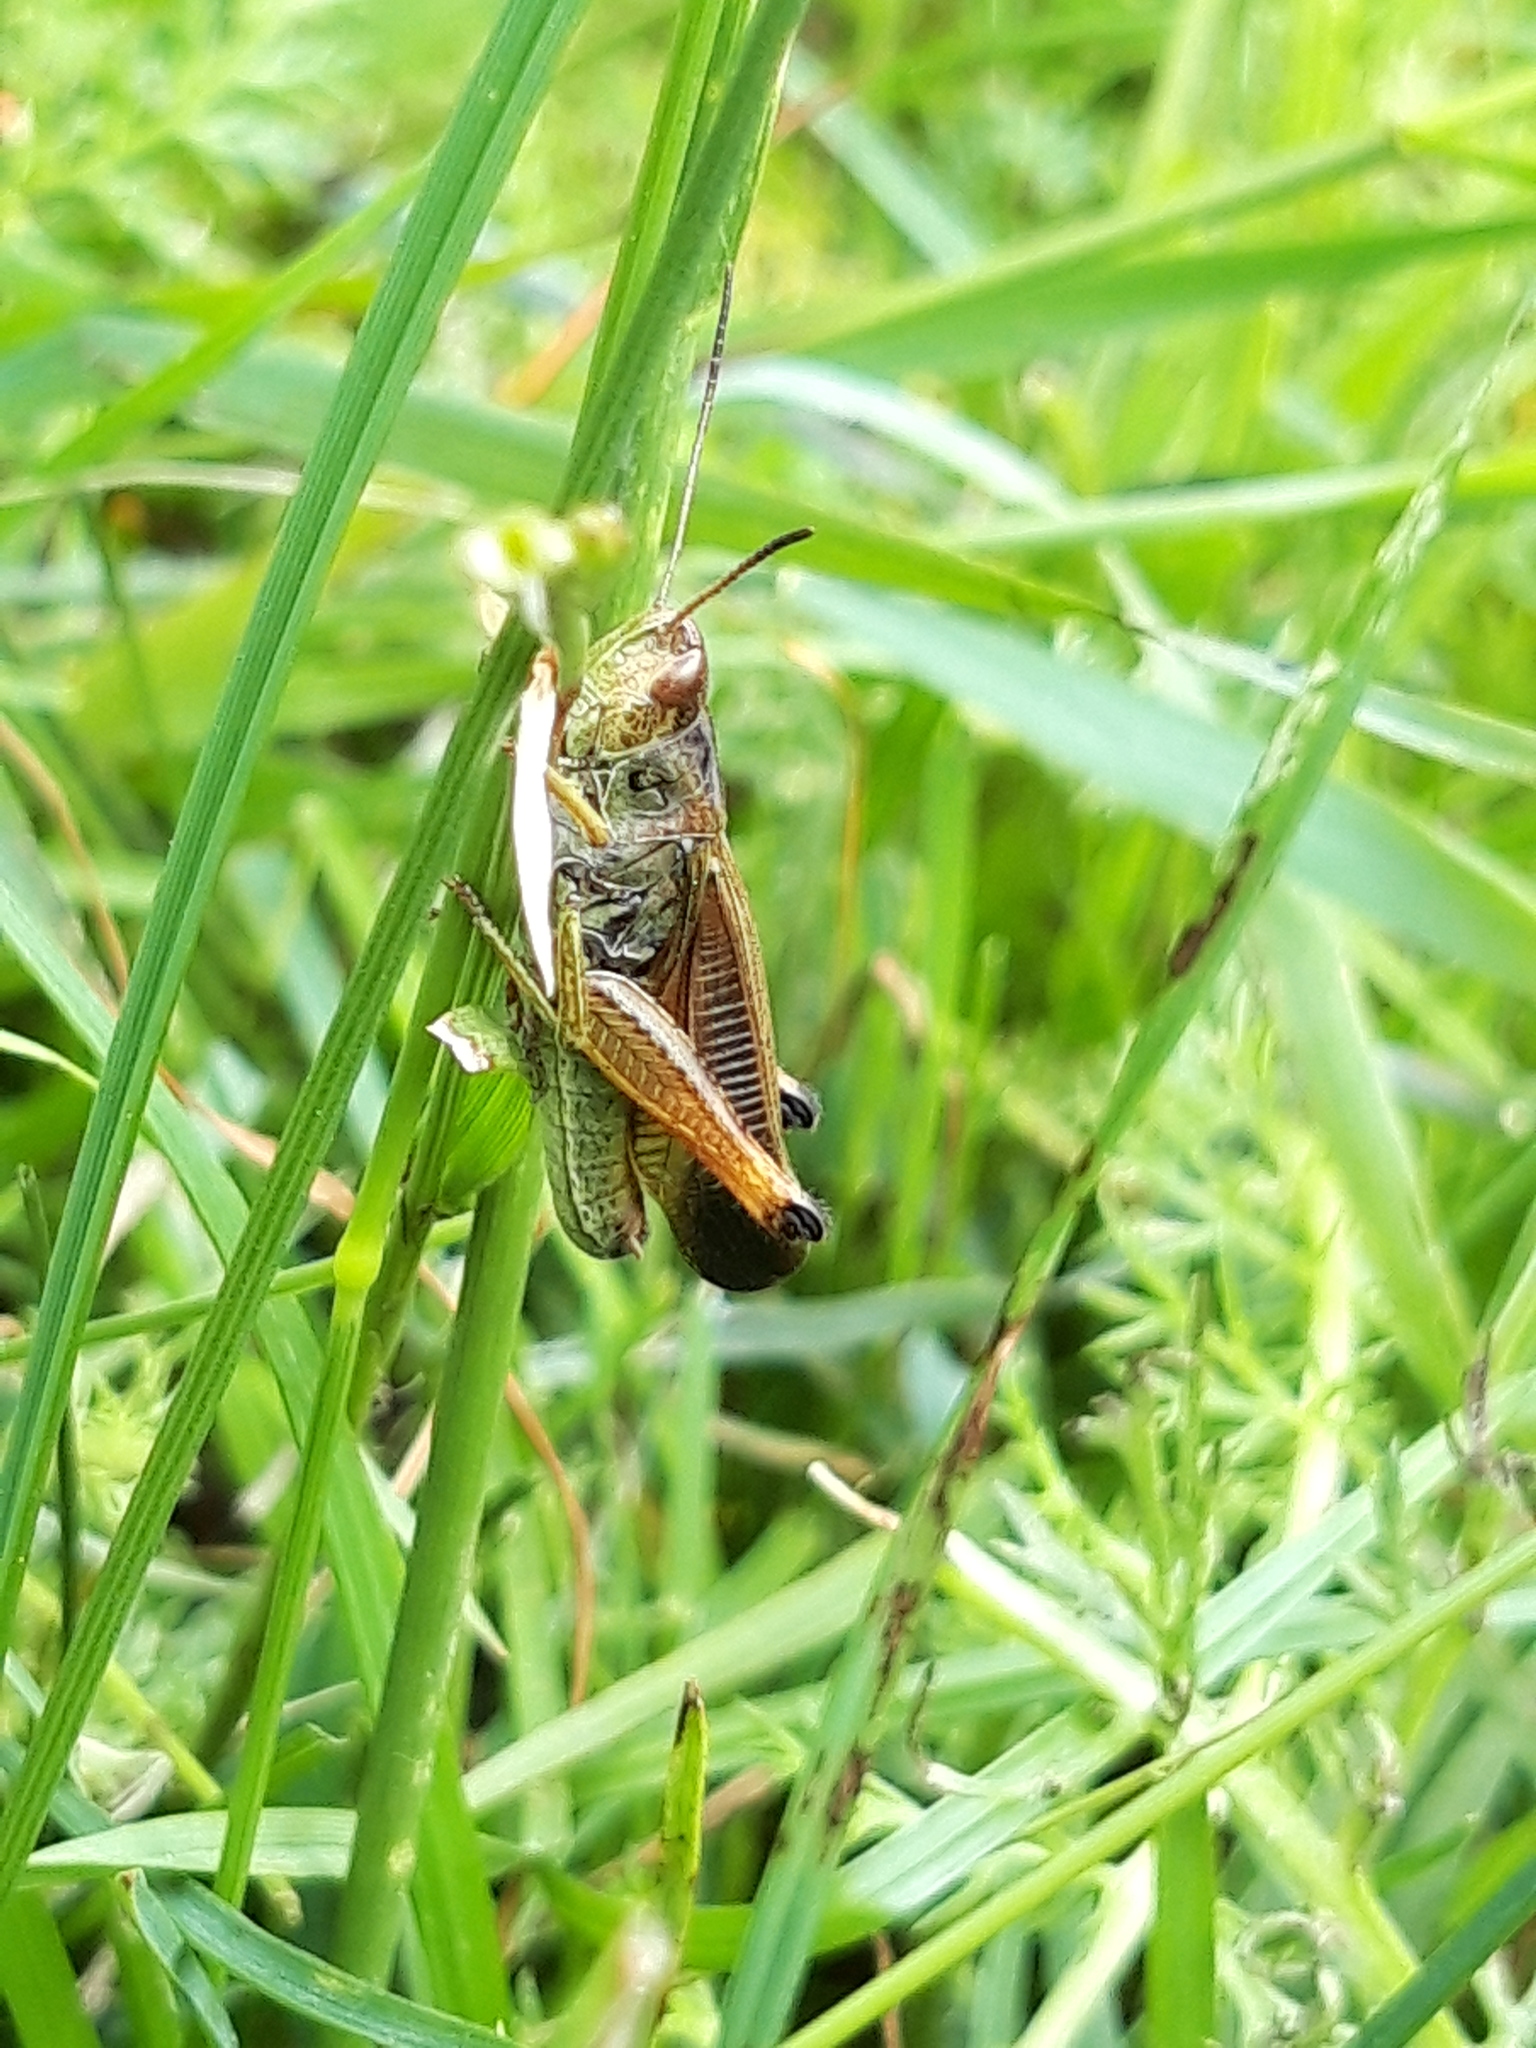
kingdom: Animalia
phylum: Arthropoda
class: Insecta
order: Orthoptera
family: Acrididae
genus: Stauroderus
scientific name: Stauroderus scalaris
